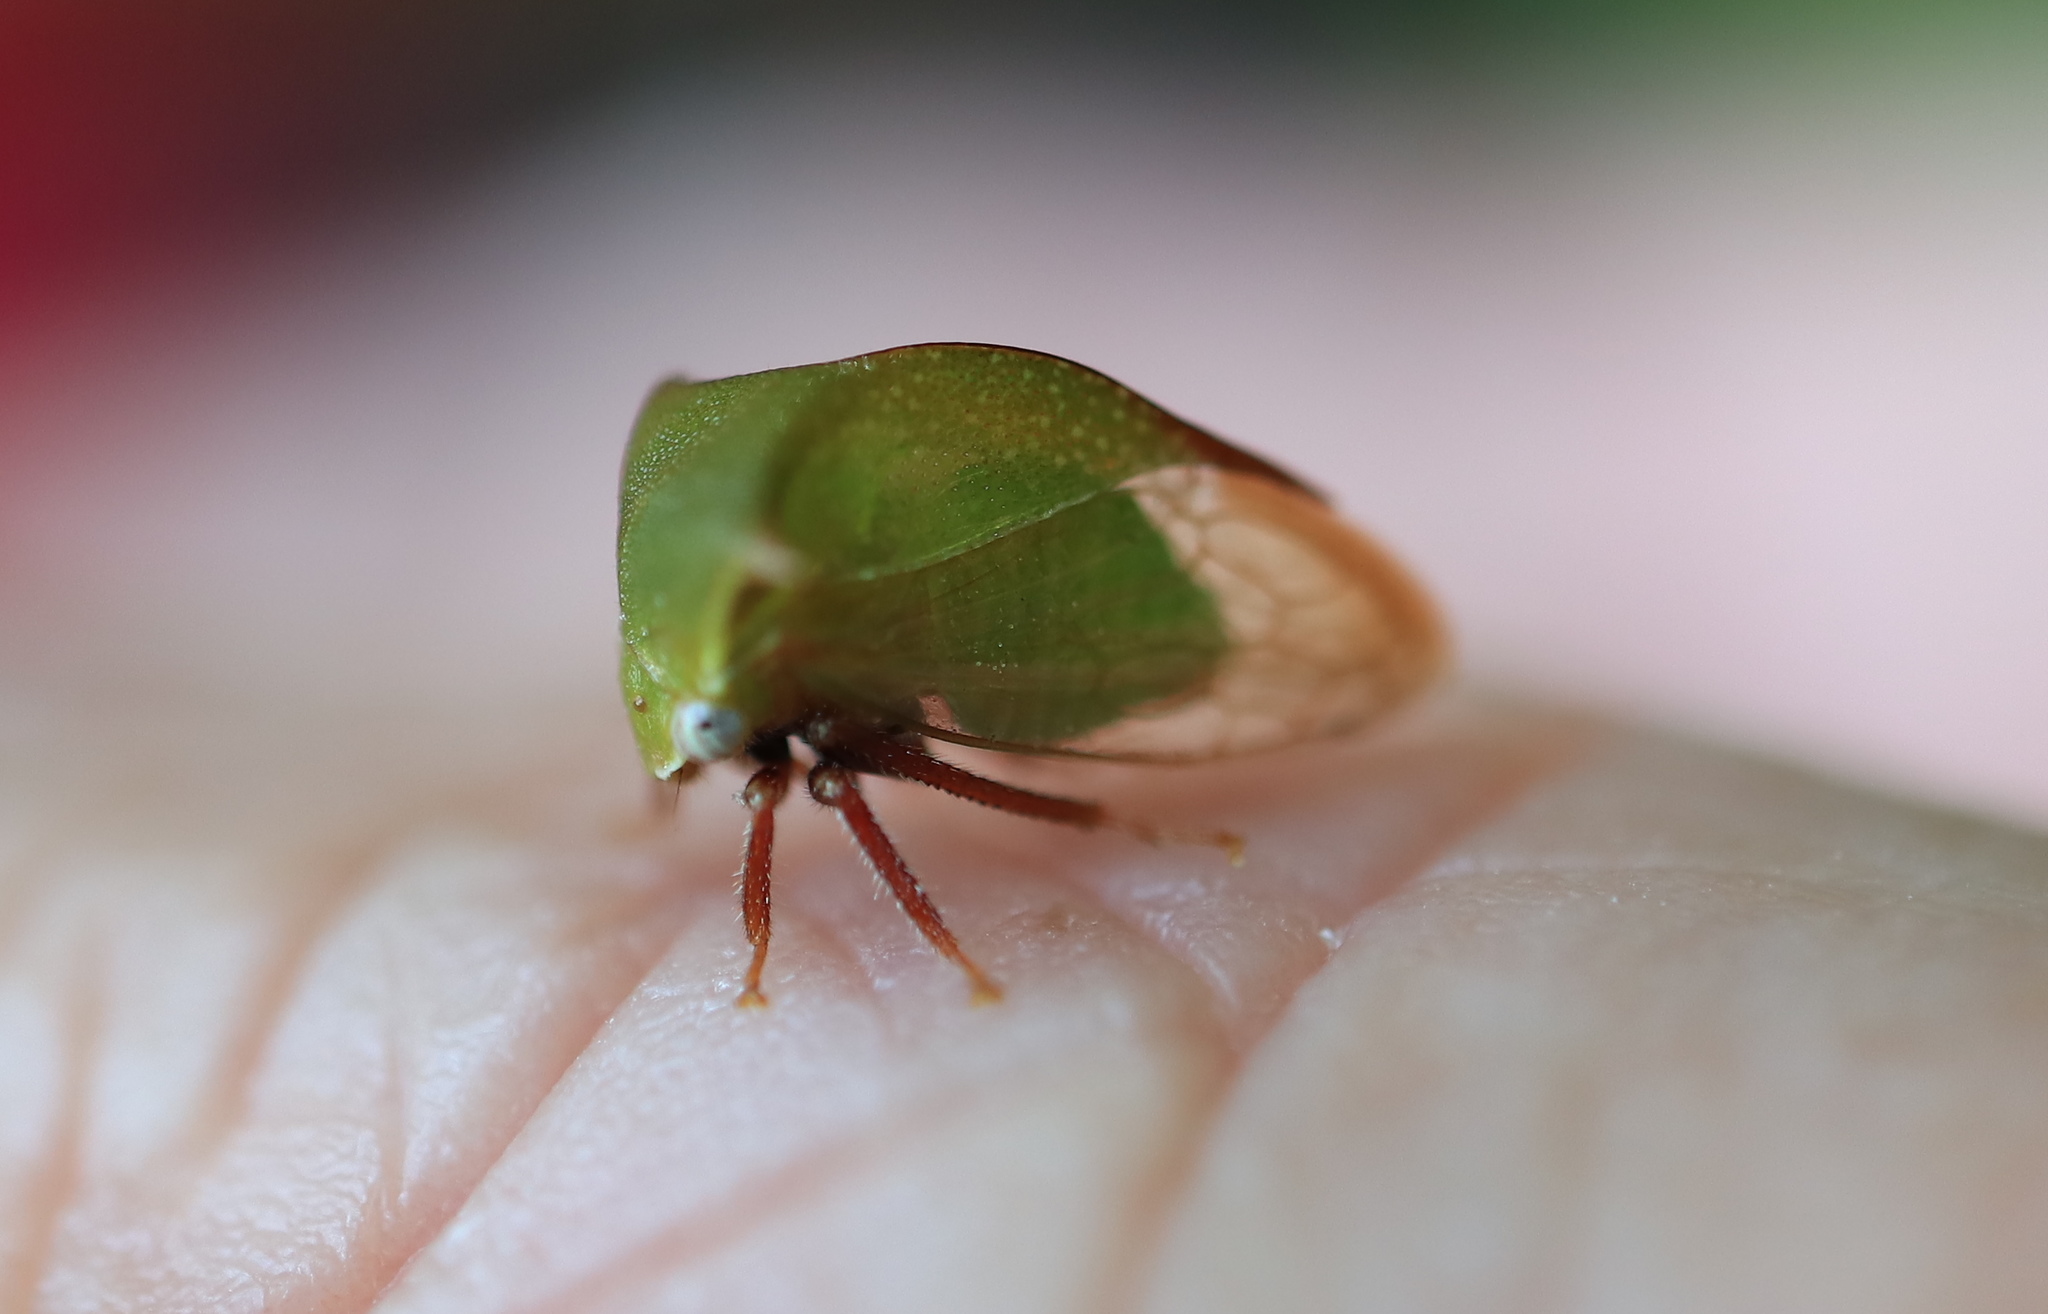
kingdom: Animalia
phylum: Arthropoda
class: Insecta
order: Hemiptera
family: Membracidae
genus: Stictocephala
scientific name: Stictocephala brevitylus
